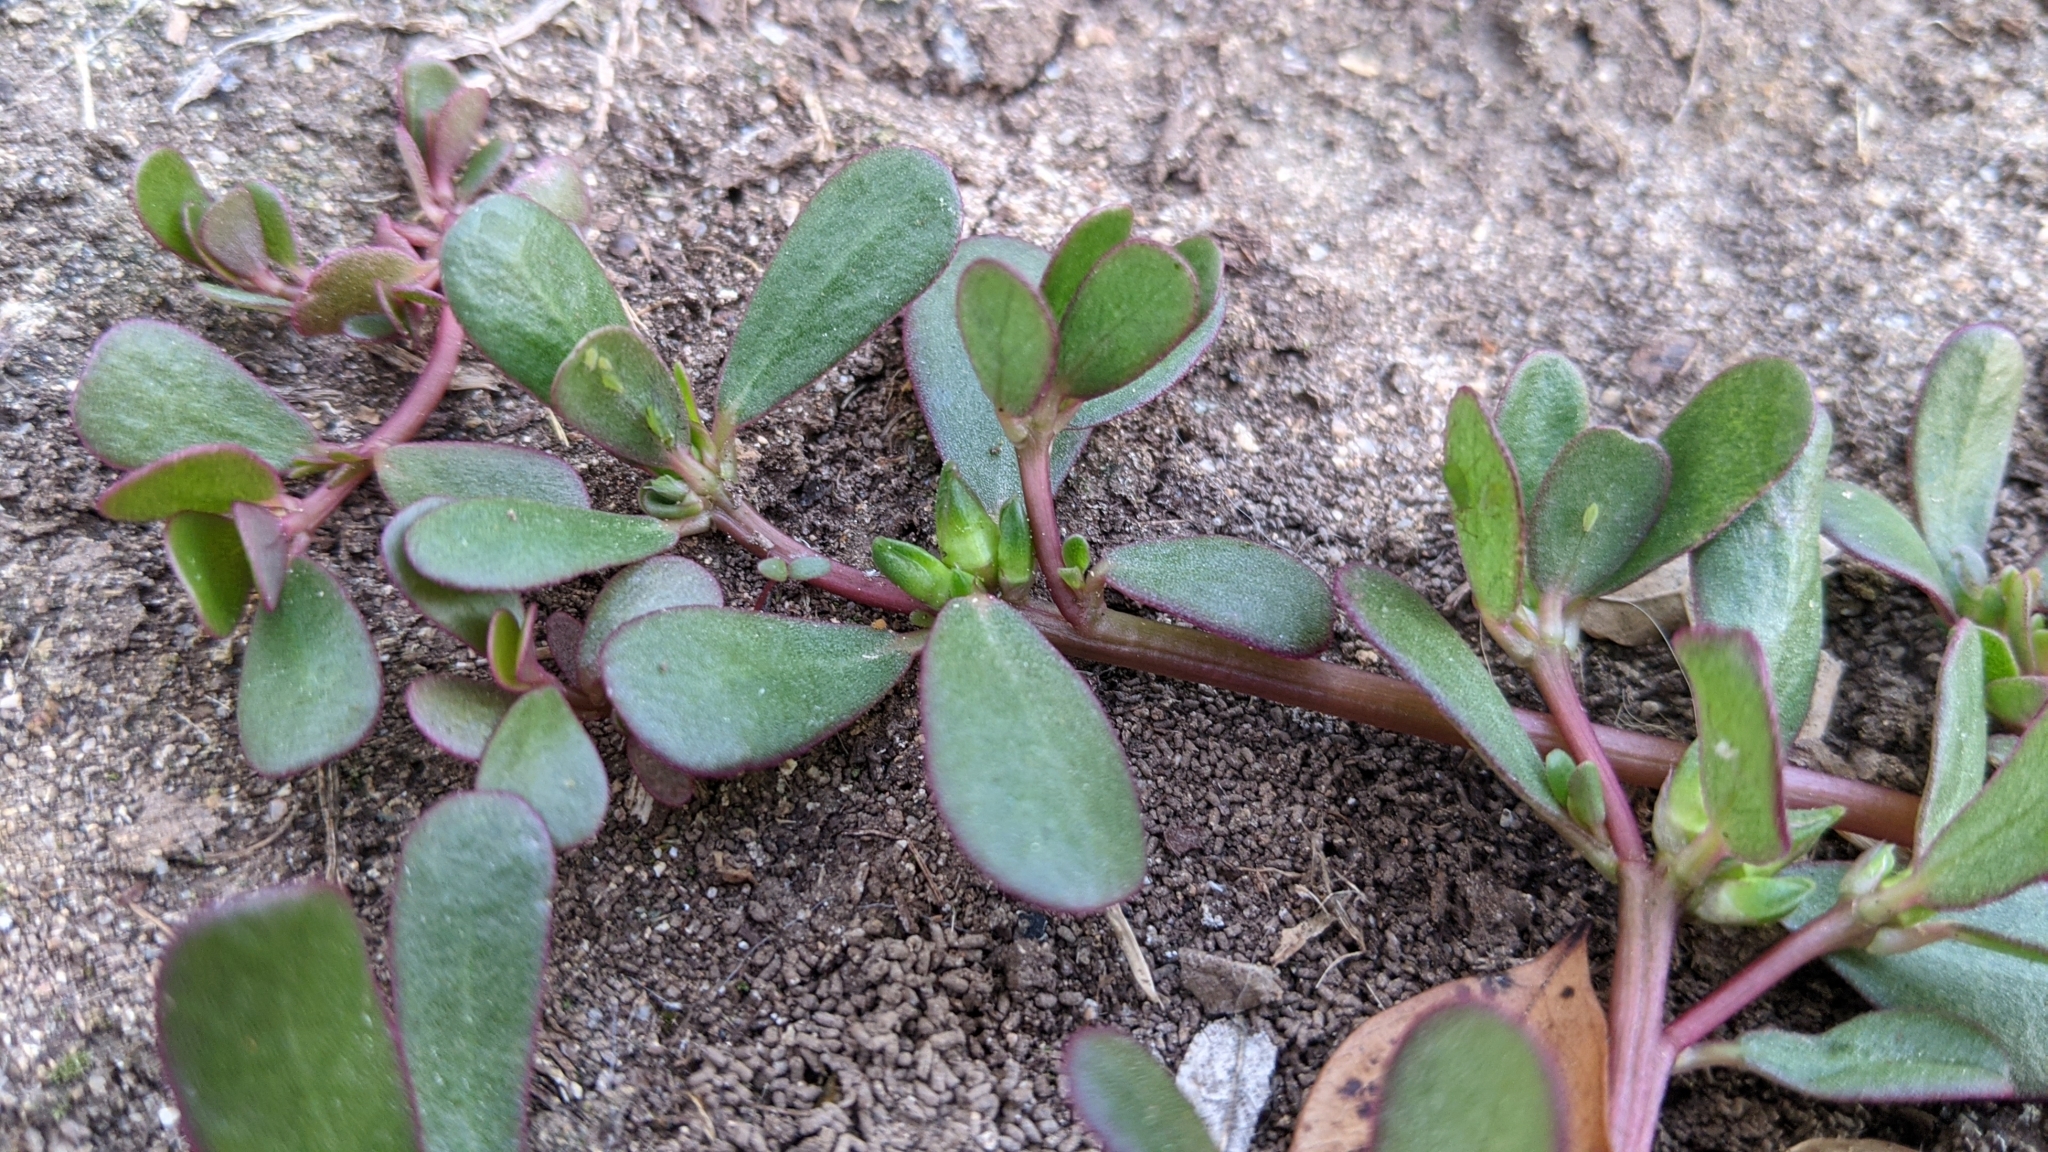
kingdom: Plantae
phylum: Tracheophyta
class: Magnoliopsida
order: Caryophyllales
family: Portulacaceae
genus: Portulaca
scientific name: Portulaca oleracea
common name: Common purslane
